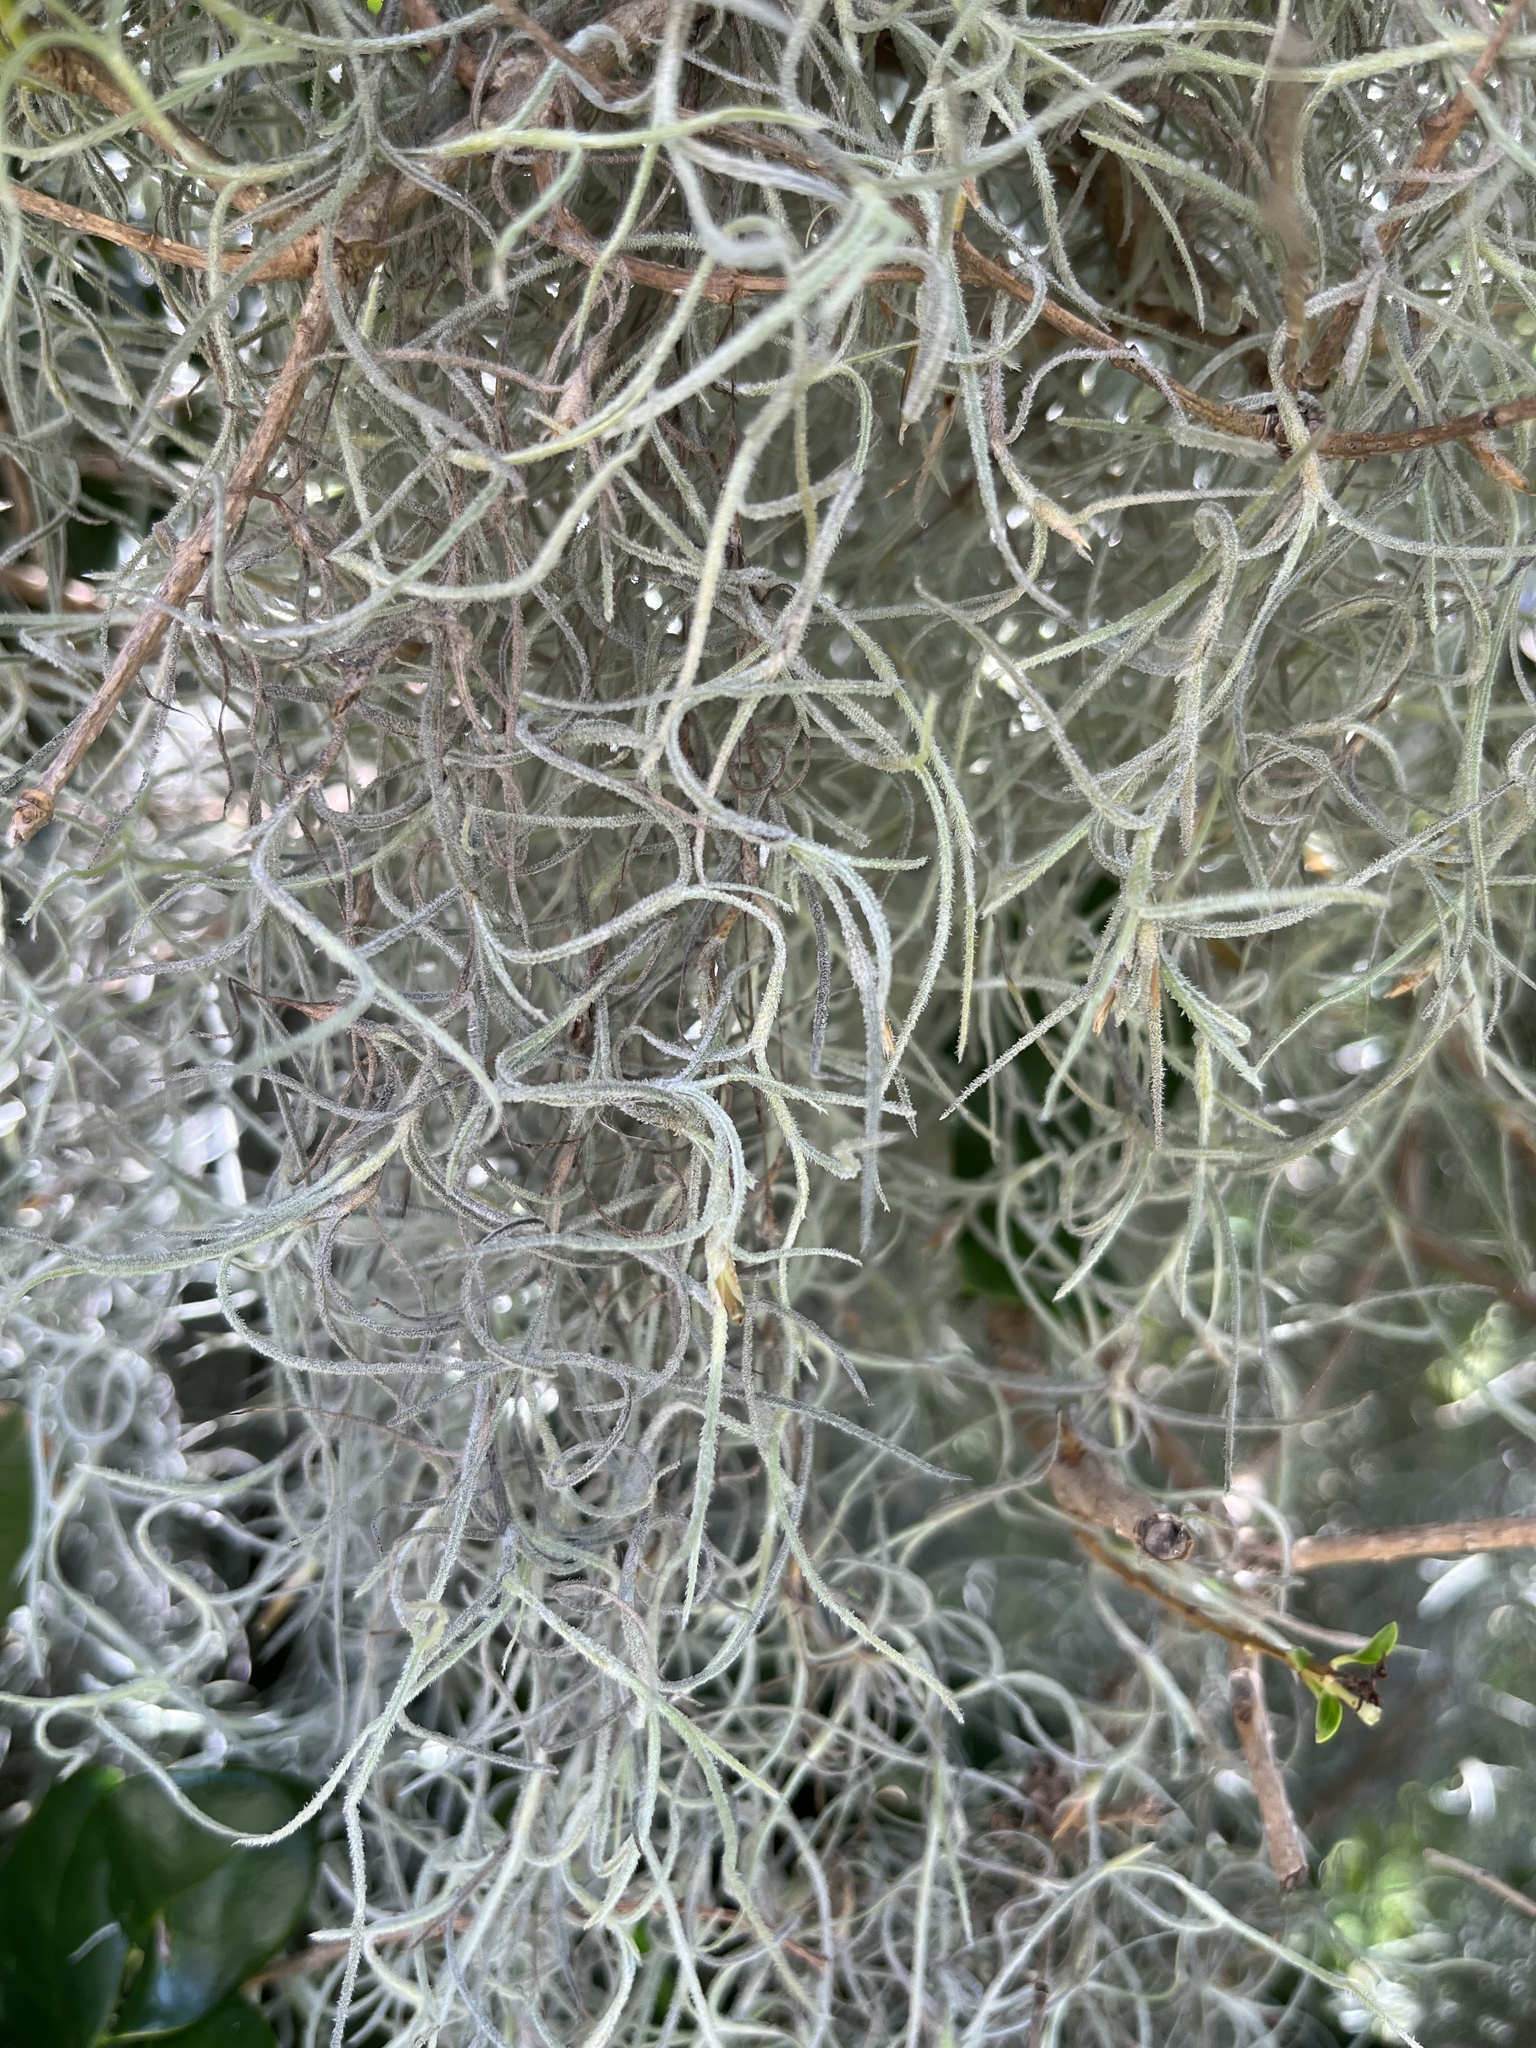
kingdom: Plantae
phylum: Tracheophyta
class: Liliopsida
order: Poales
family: Bromeliaceae
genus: Tillandsia
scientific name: Tillandsia usneoides
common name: Spanish moss
